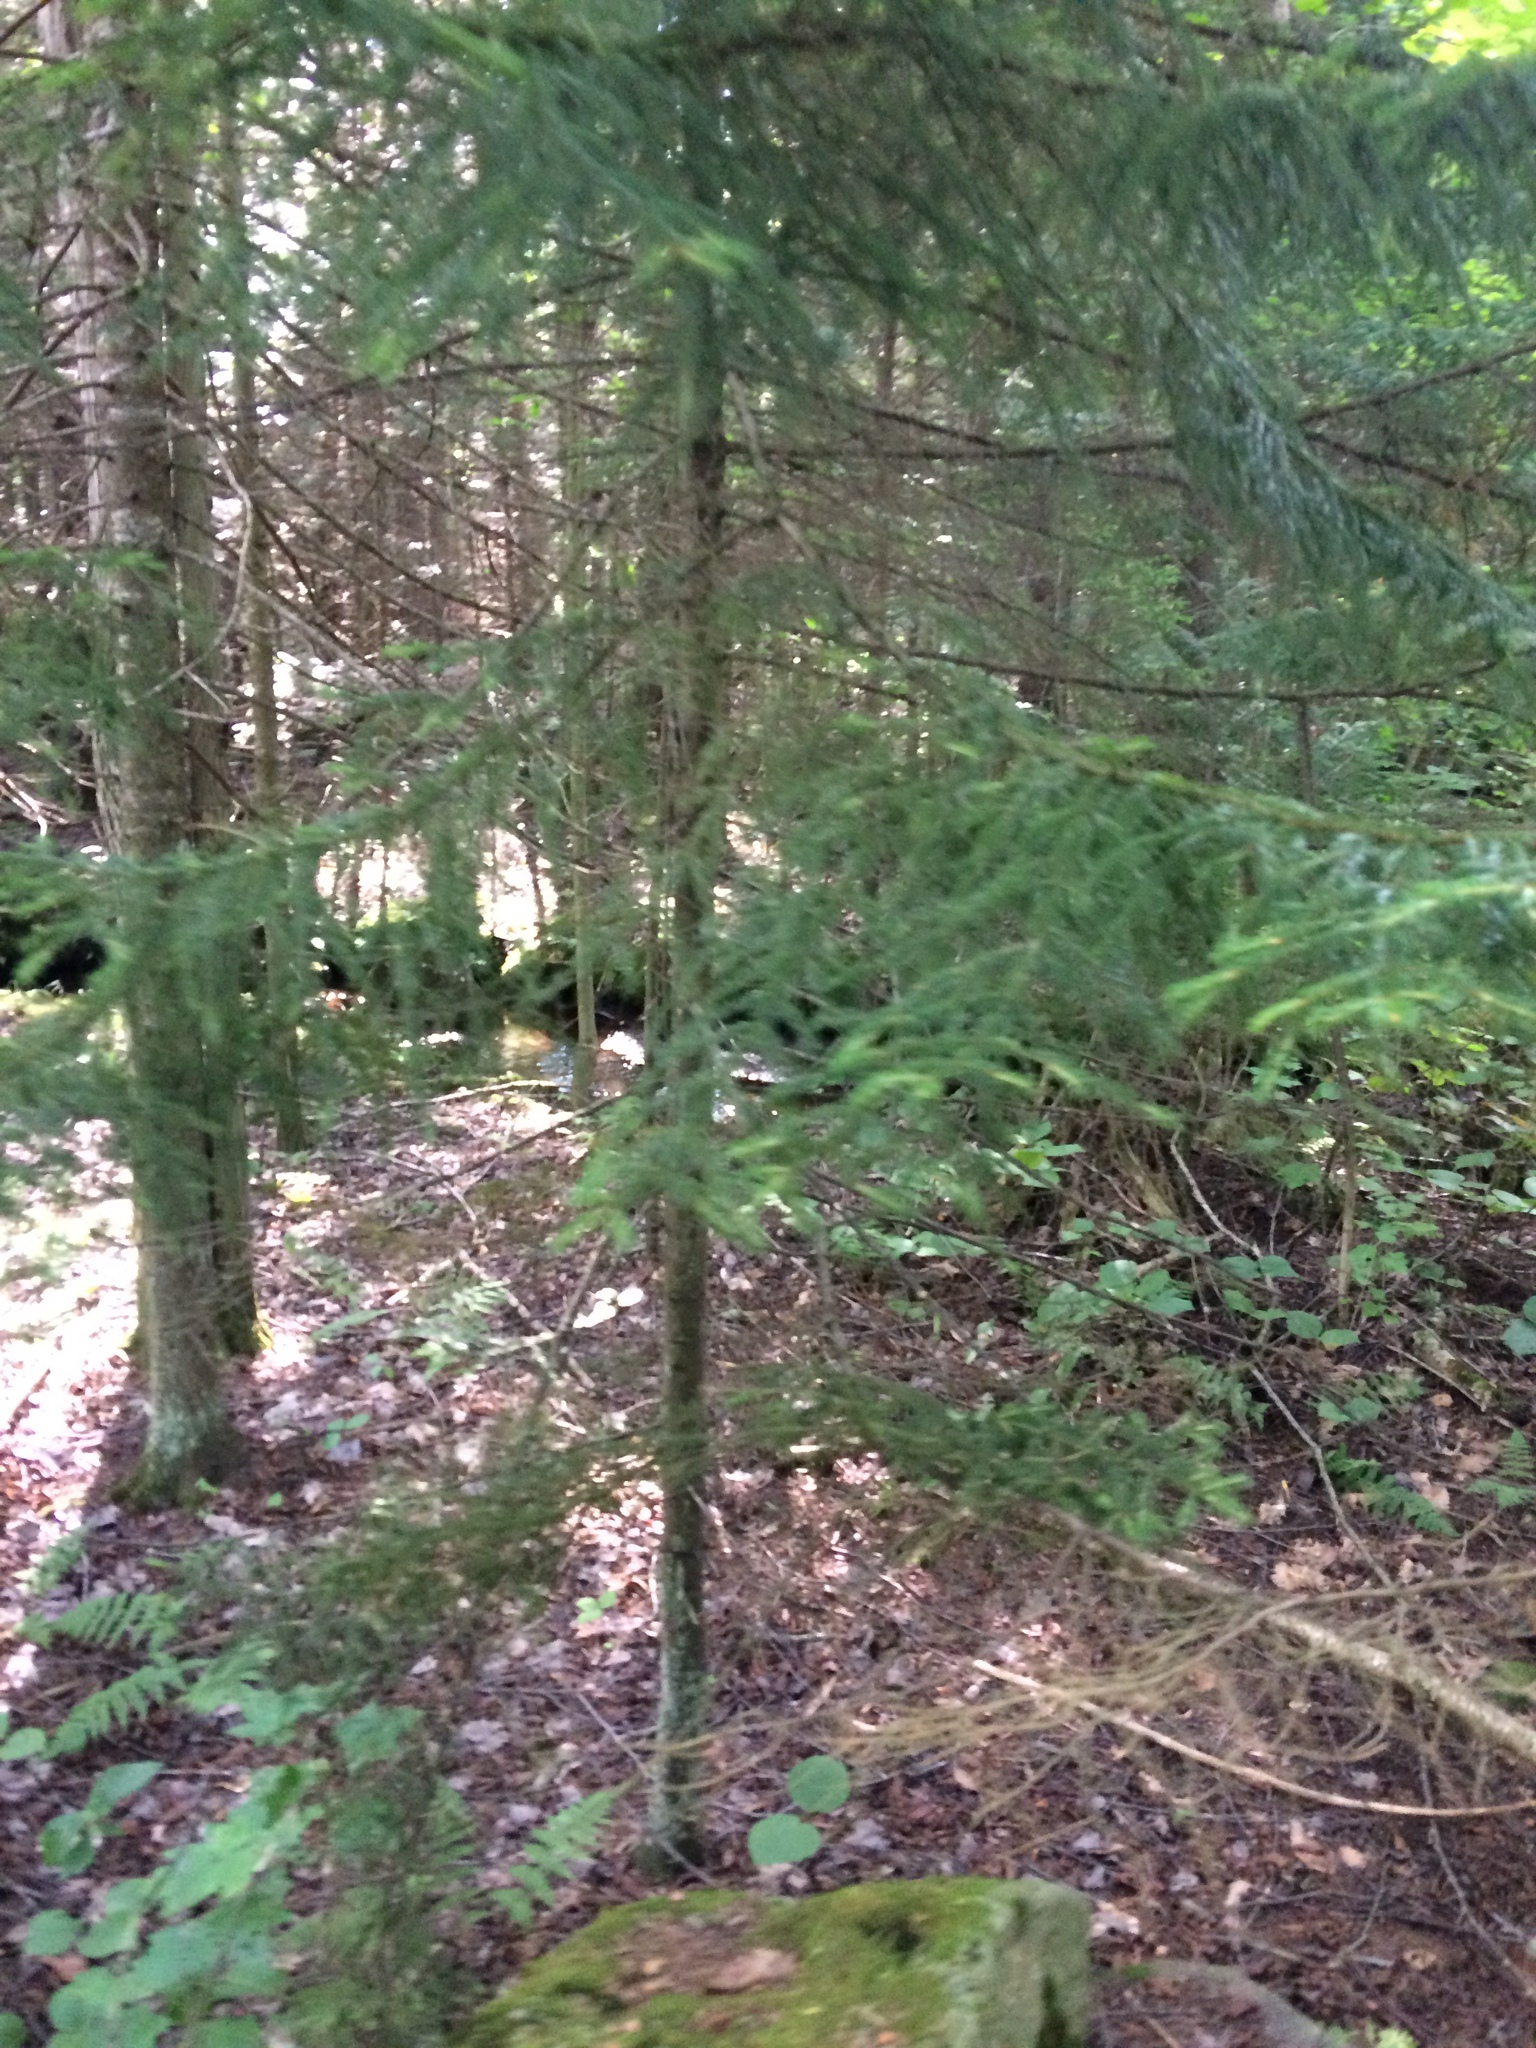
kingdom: Plantae
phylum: Tracheophyta
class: Pinopsida
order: Pinales
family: Pinaceae
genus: Picea
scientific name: Picea rubens
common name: Red spruce
